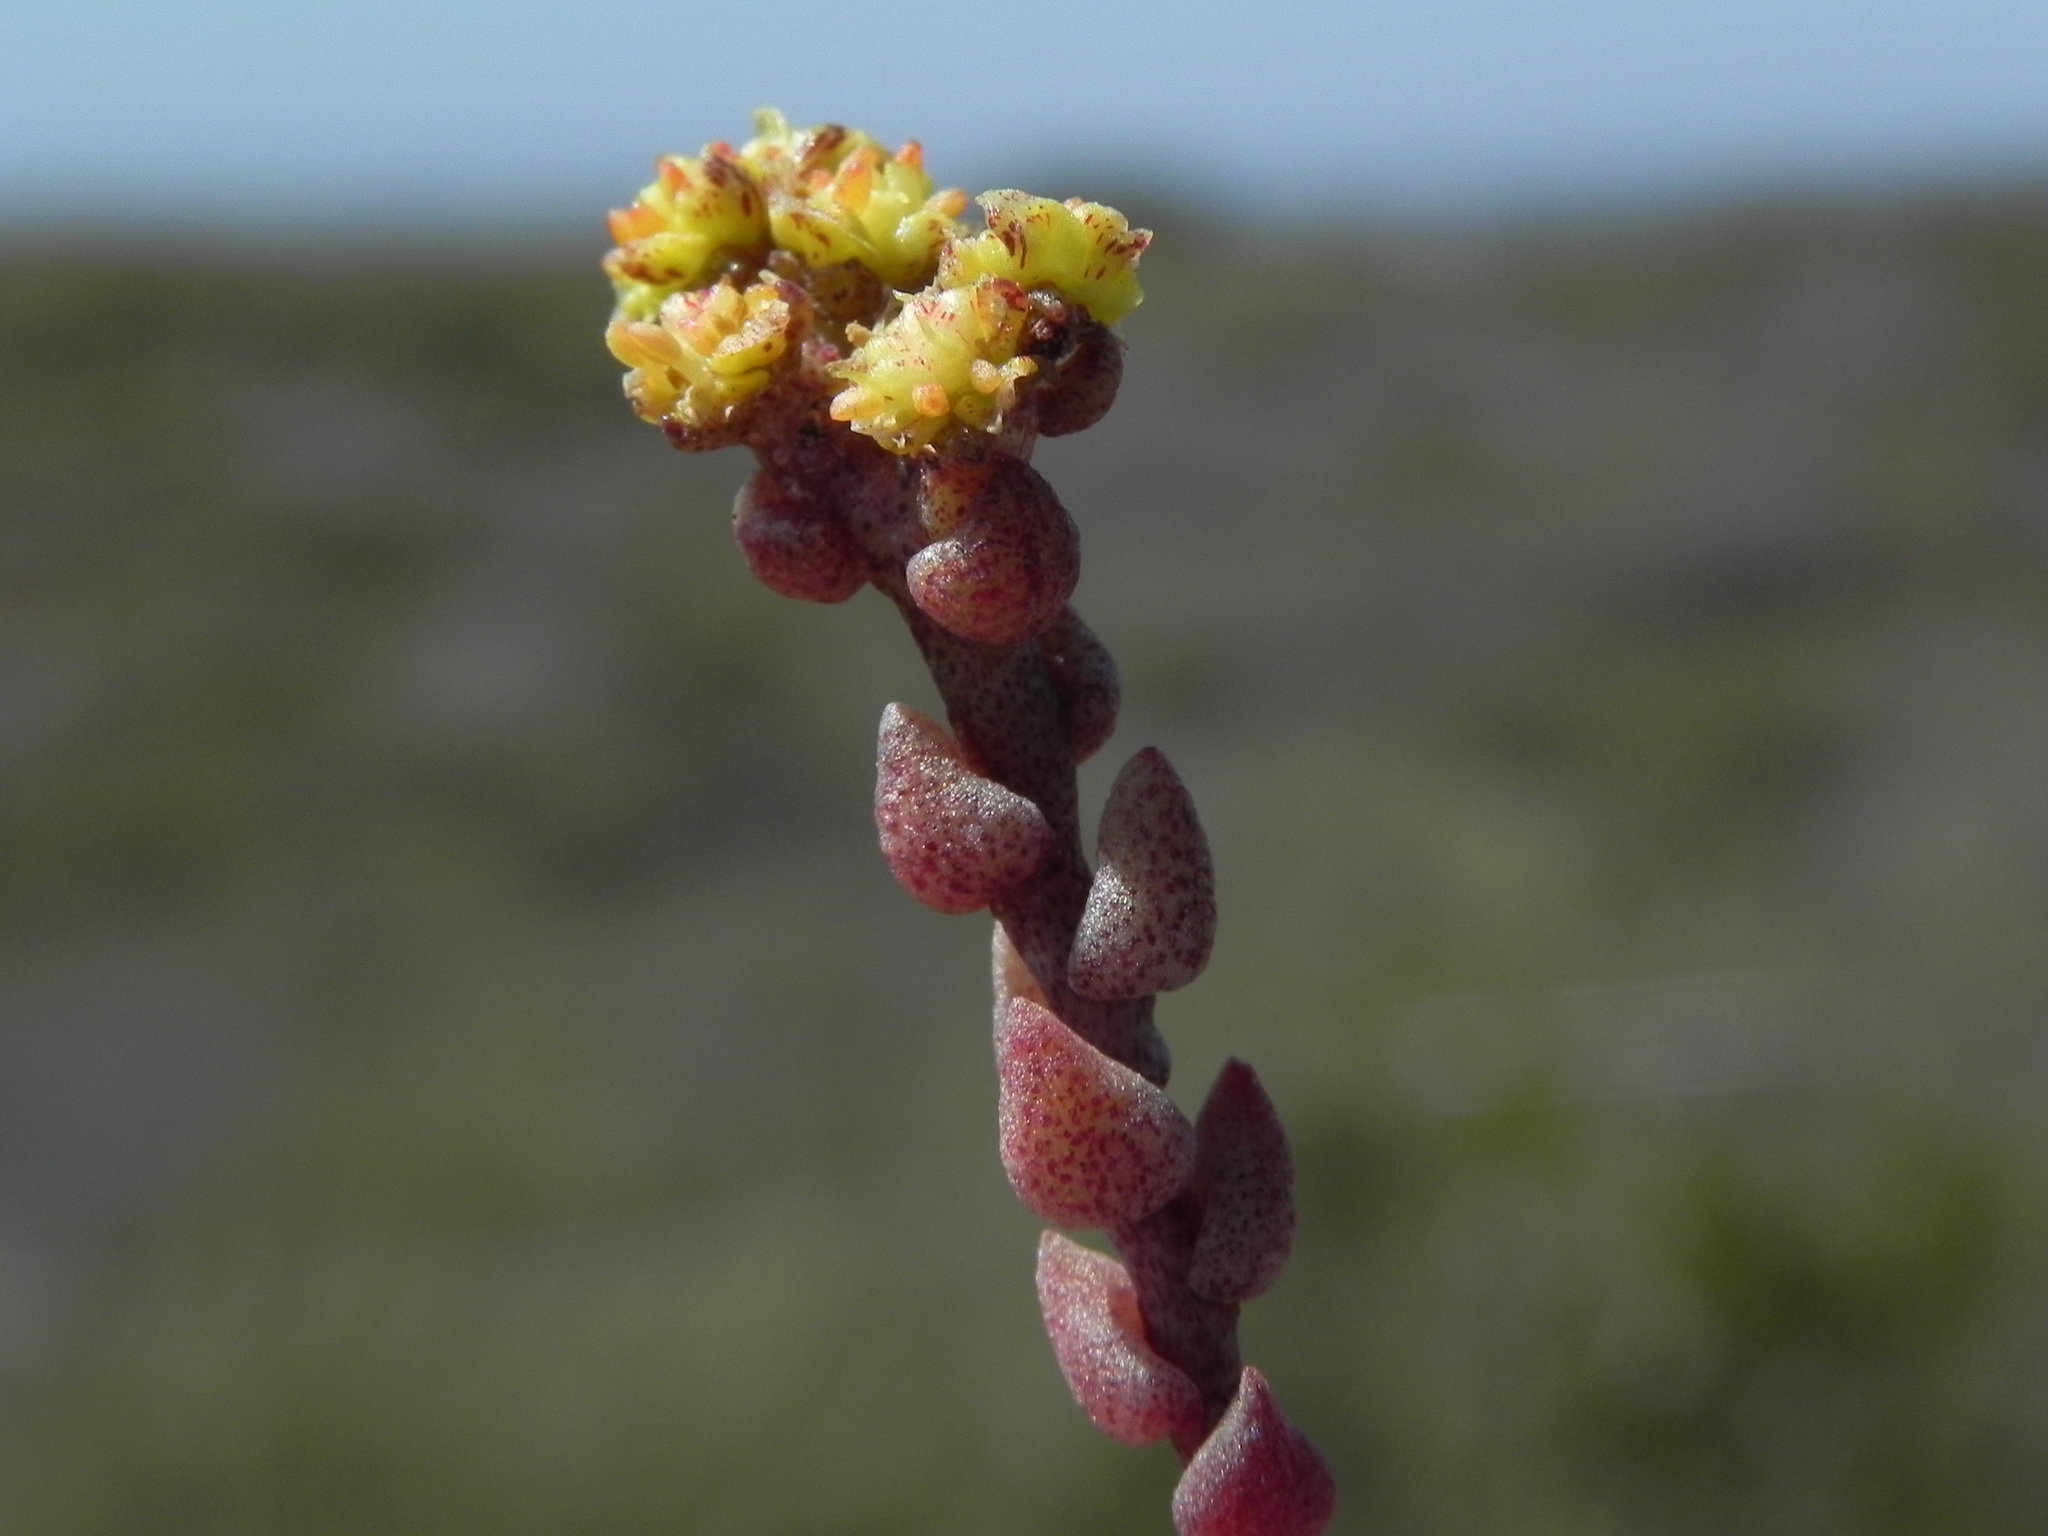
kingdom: Plantae
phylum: Tracheophyta
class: Magnoliopsida
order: Saxifragales
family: Crassulaceae
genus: Dudleya
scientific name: Dudleya variegata
